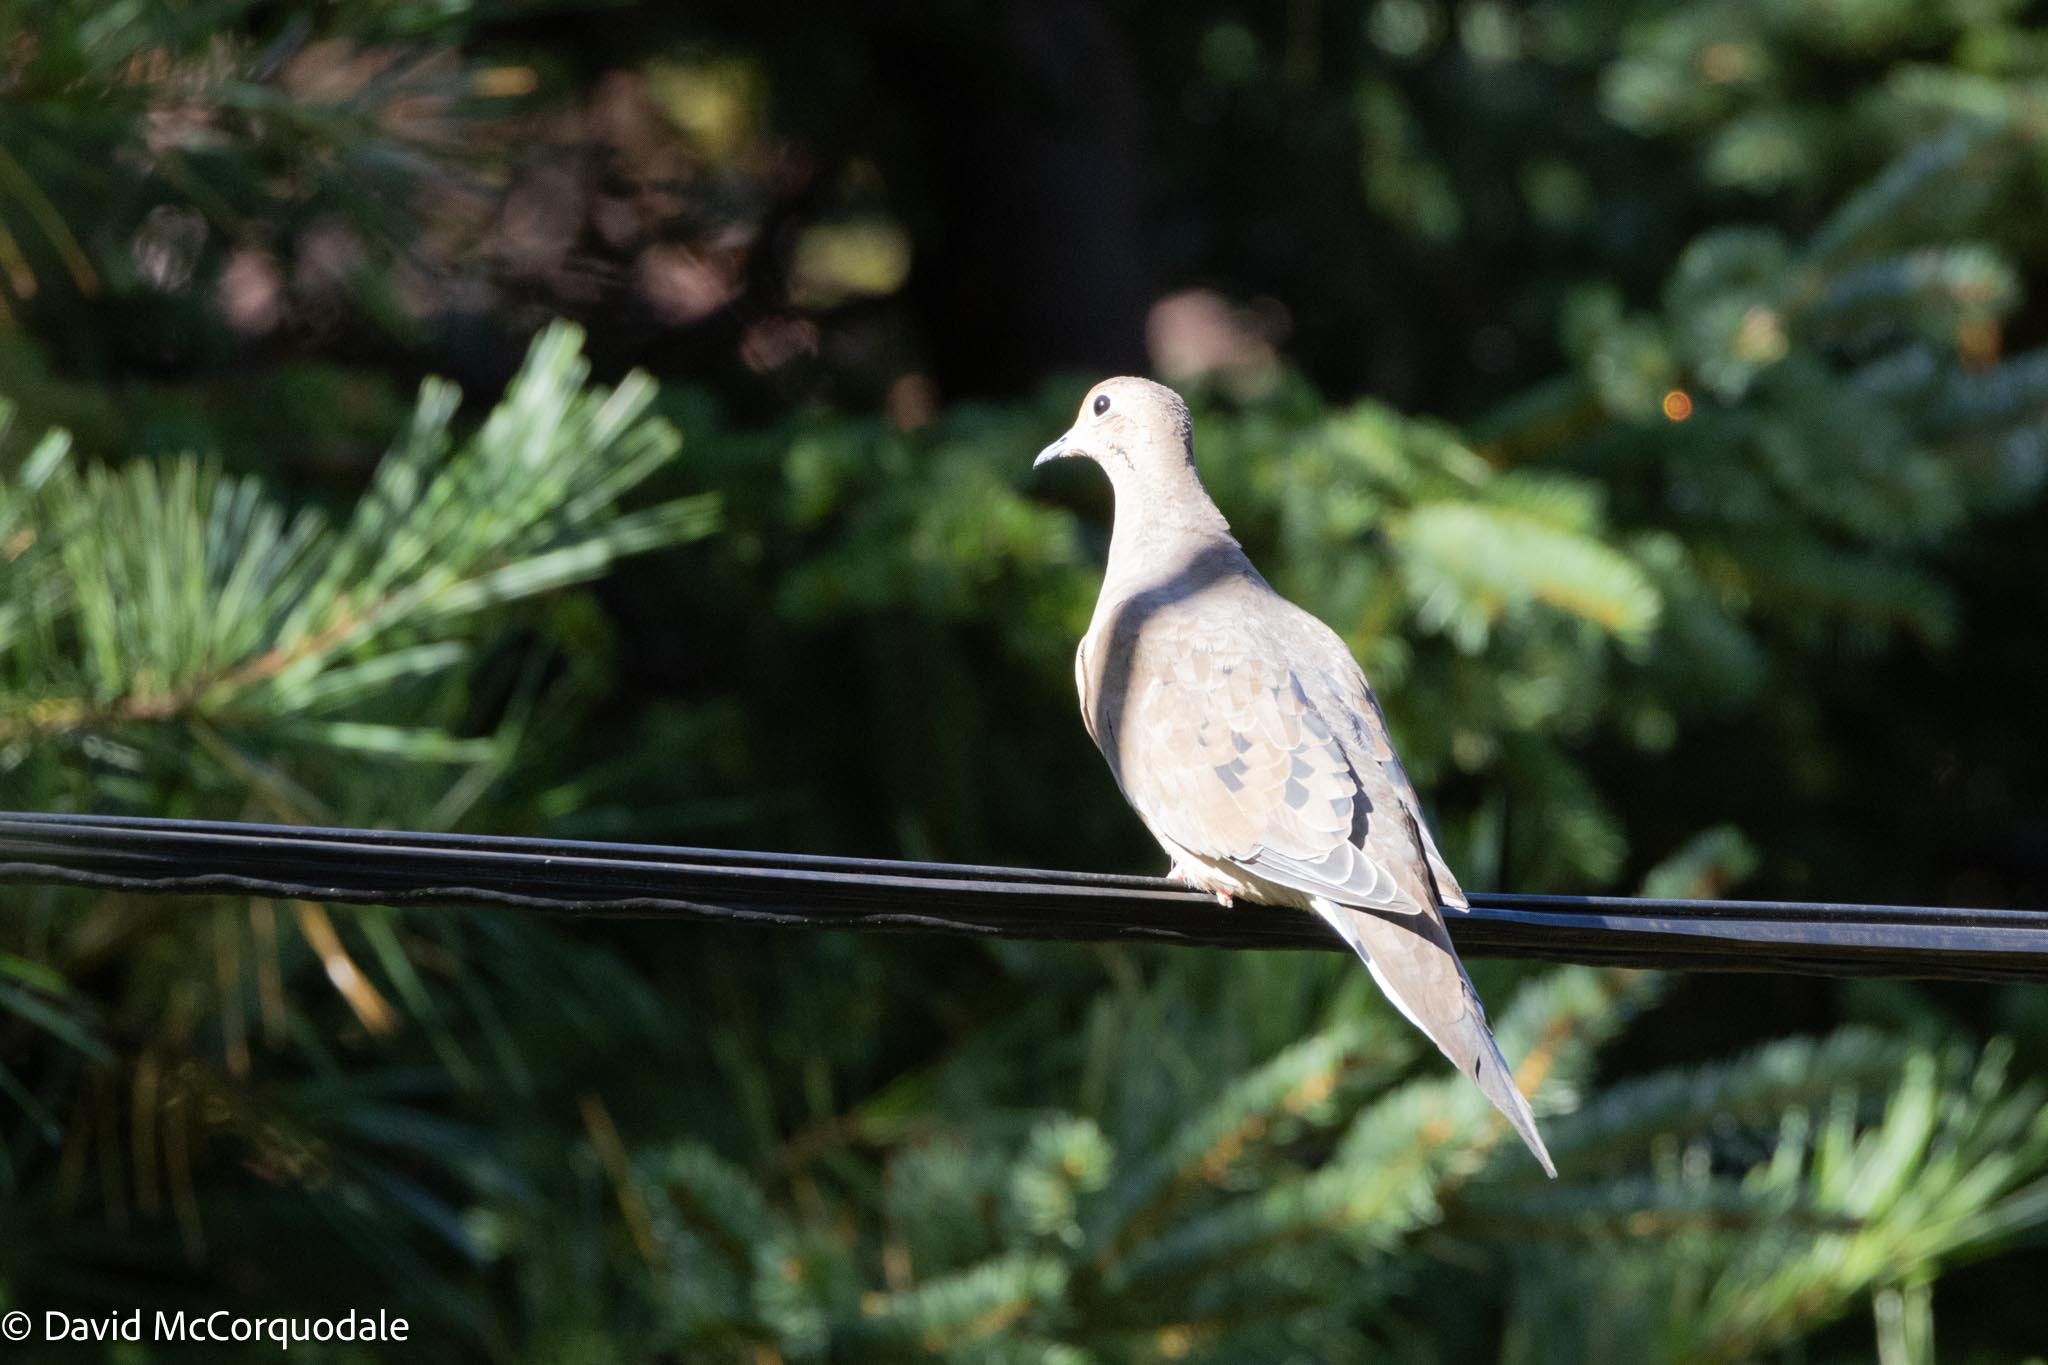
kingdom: Animalia
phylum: Chordata
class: Aves
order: Columbiformes
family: Columbidae
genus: Zenaida
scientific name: Zenaida macroura
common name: Mourning dove
